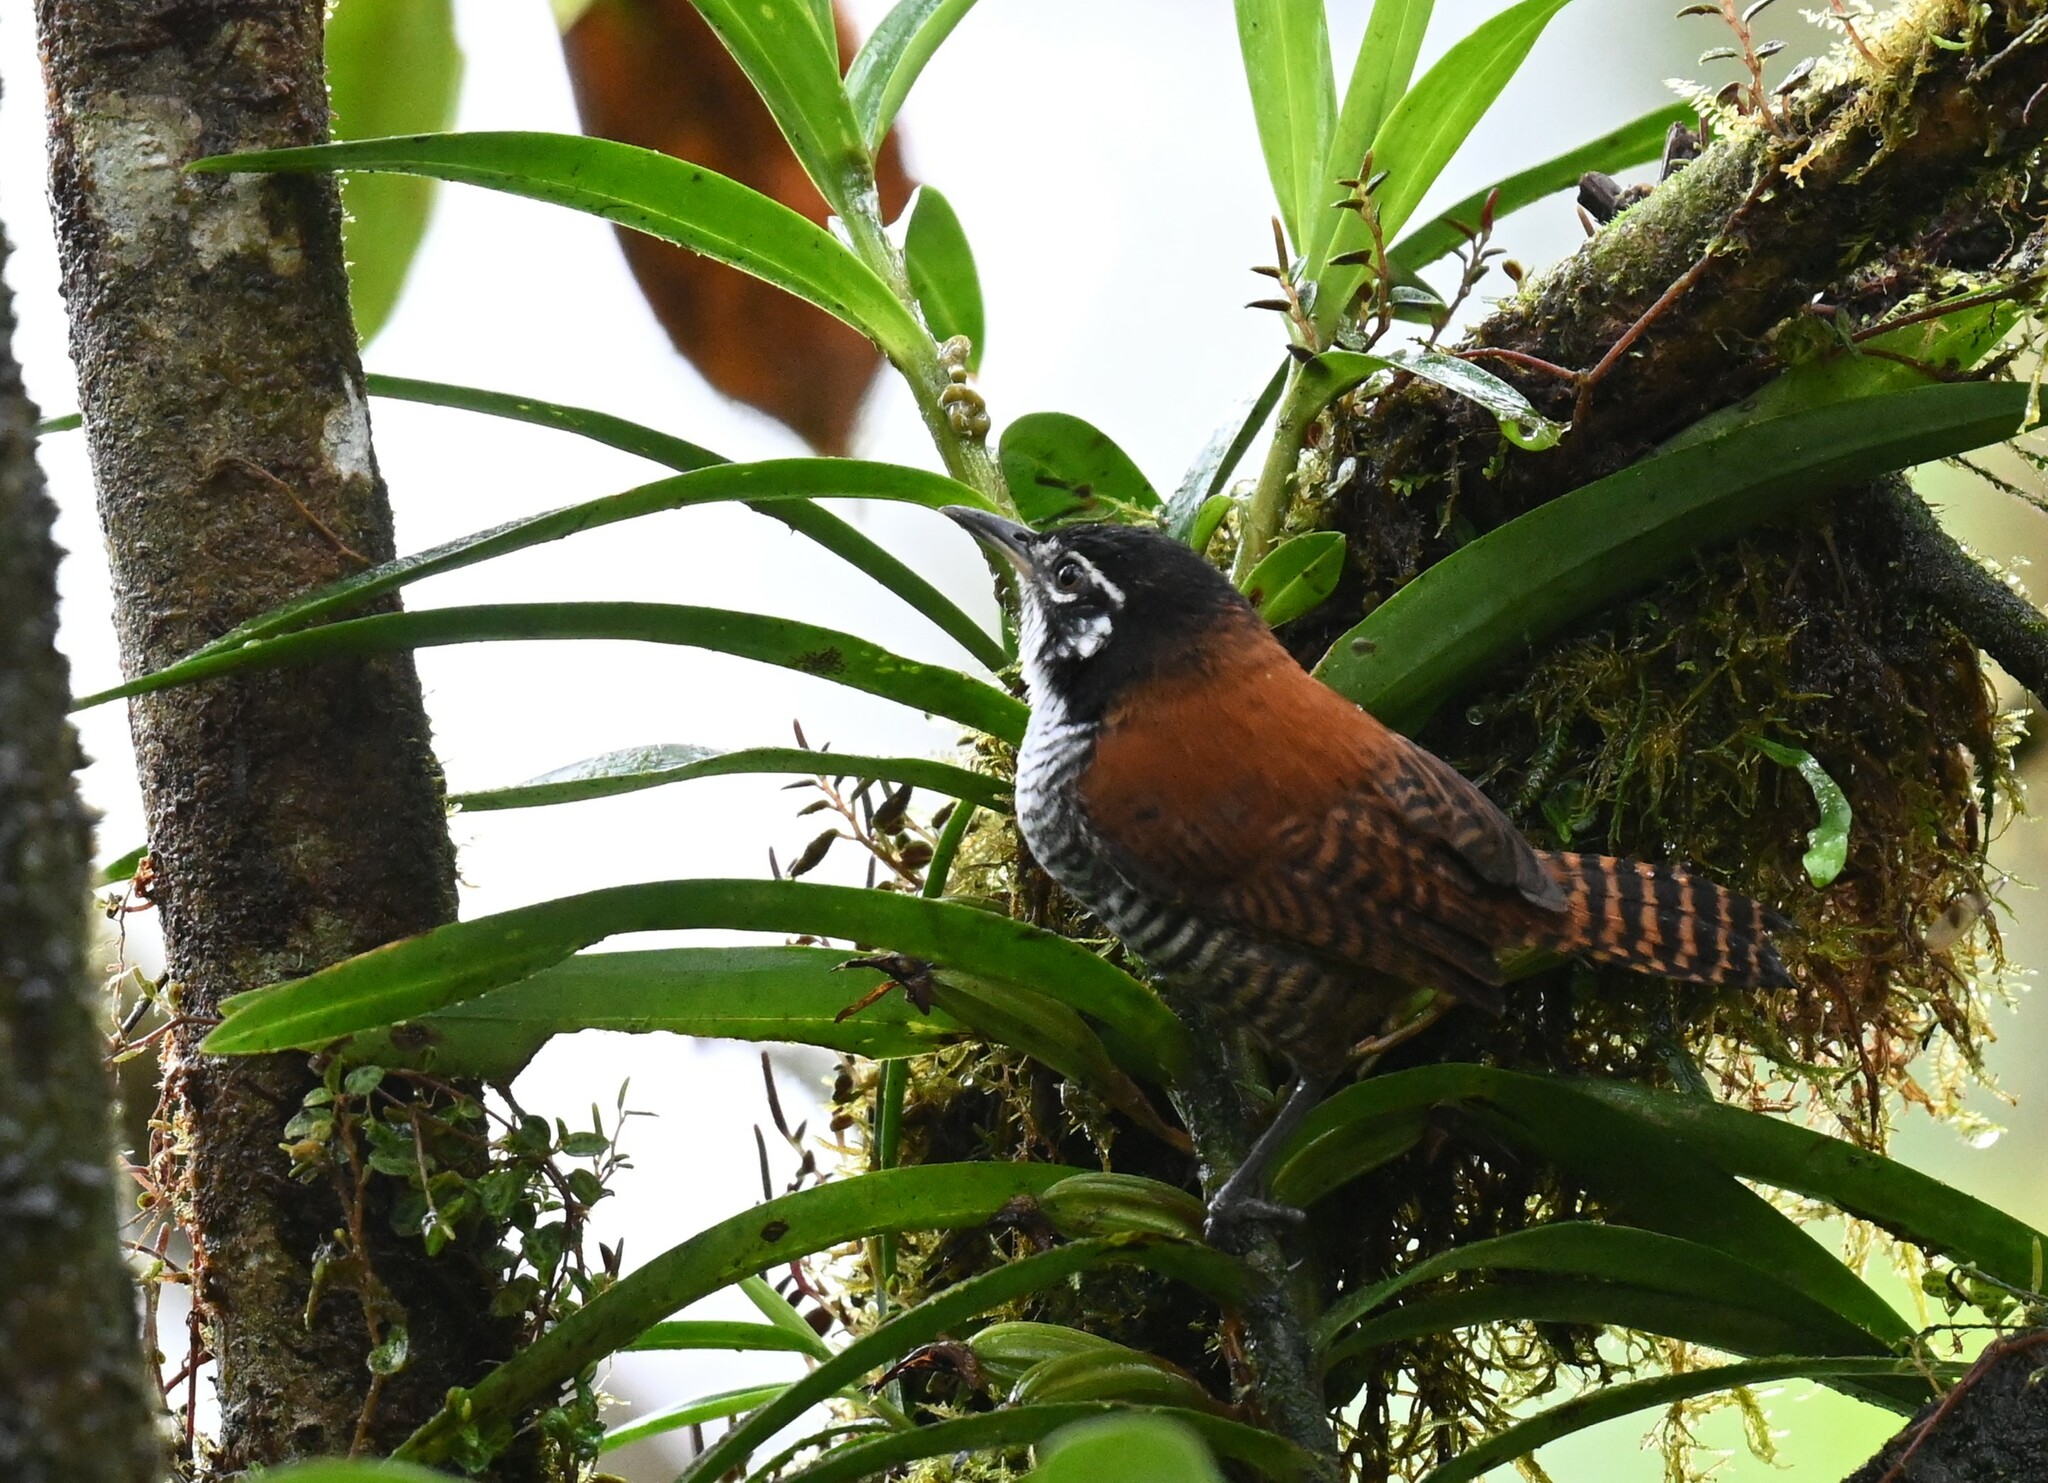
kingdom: Animalia
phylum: Chordata
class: Aves
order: Passeriformes
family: Troglodytidae
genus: Cantorchilus
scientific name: Cantorchilus nigricapillus
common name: Bay wren
